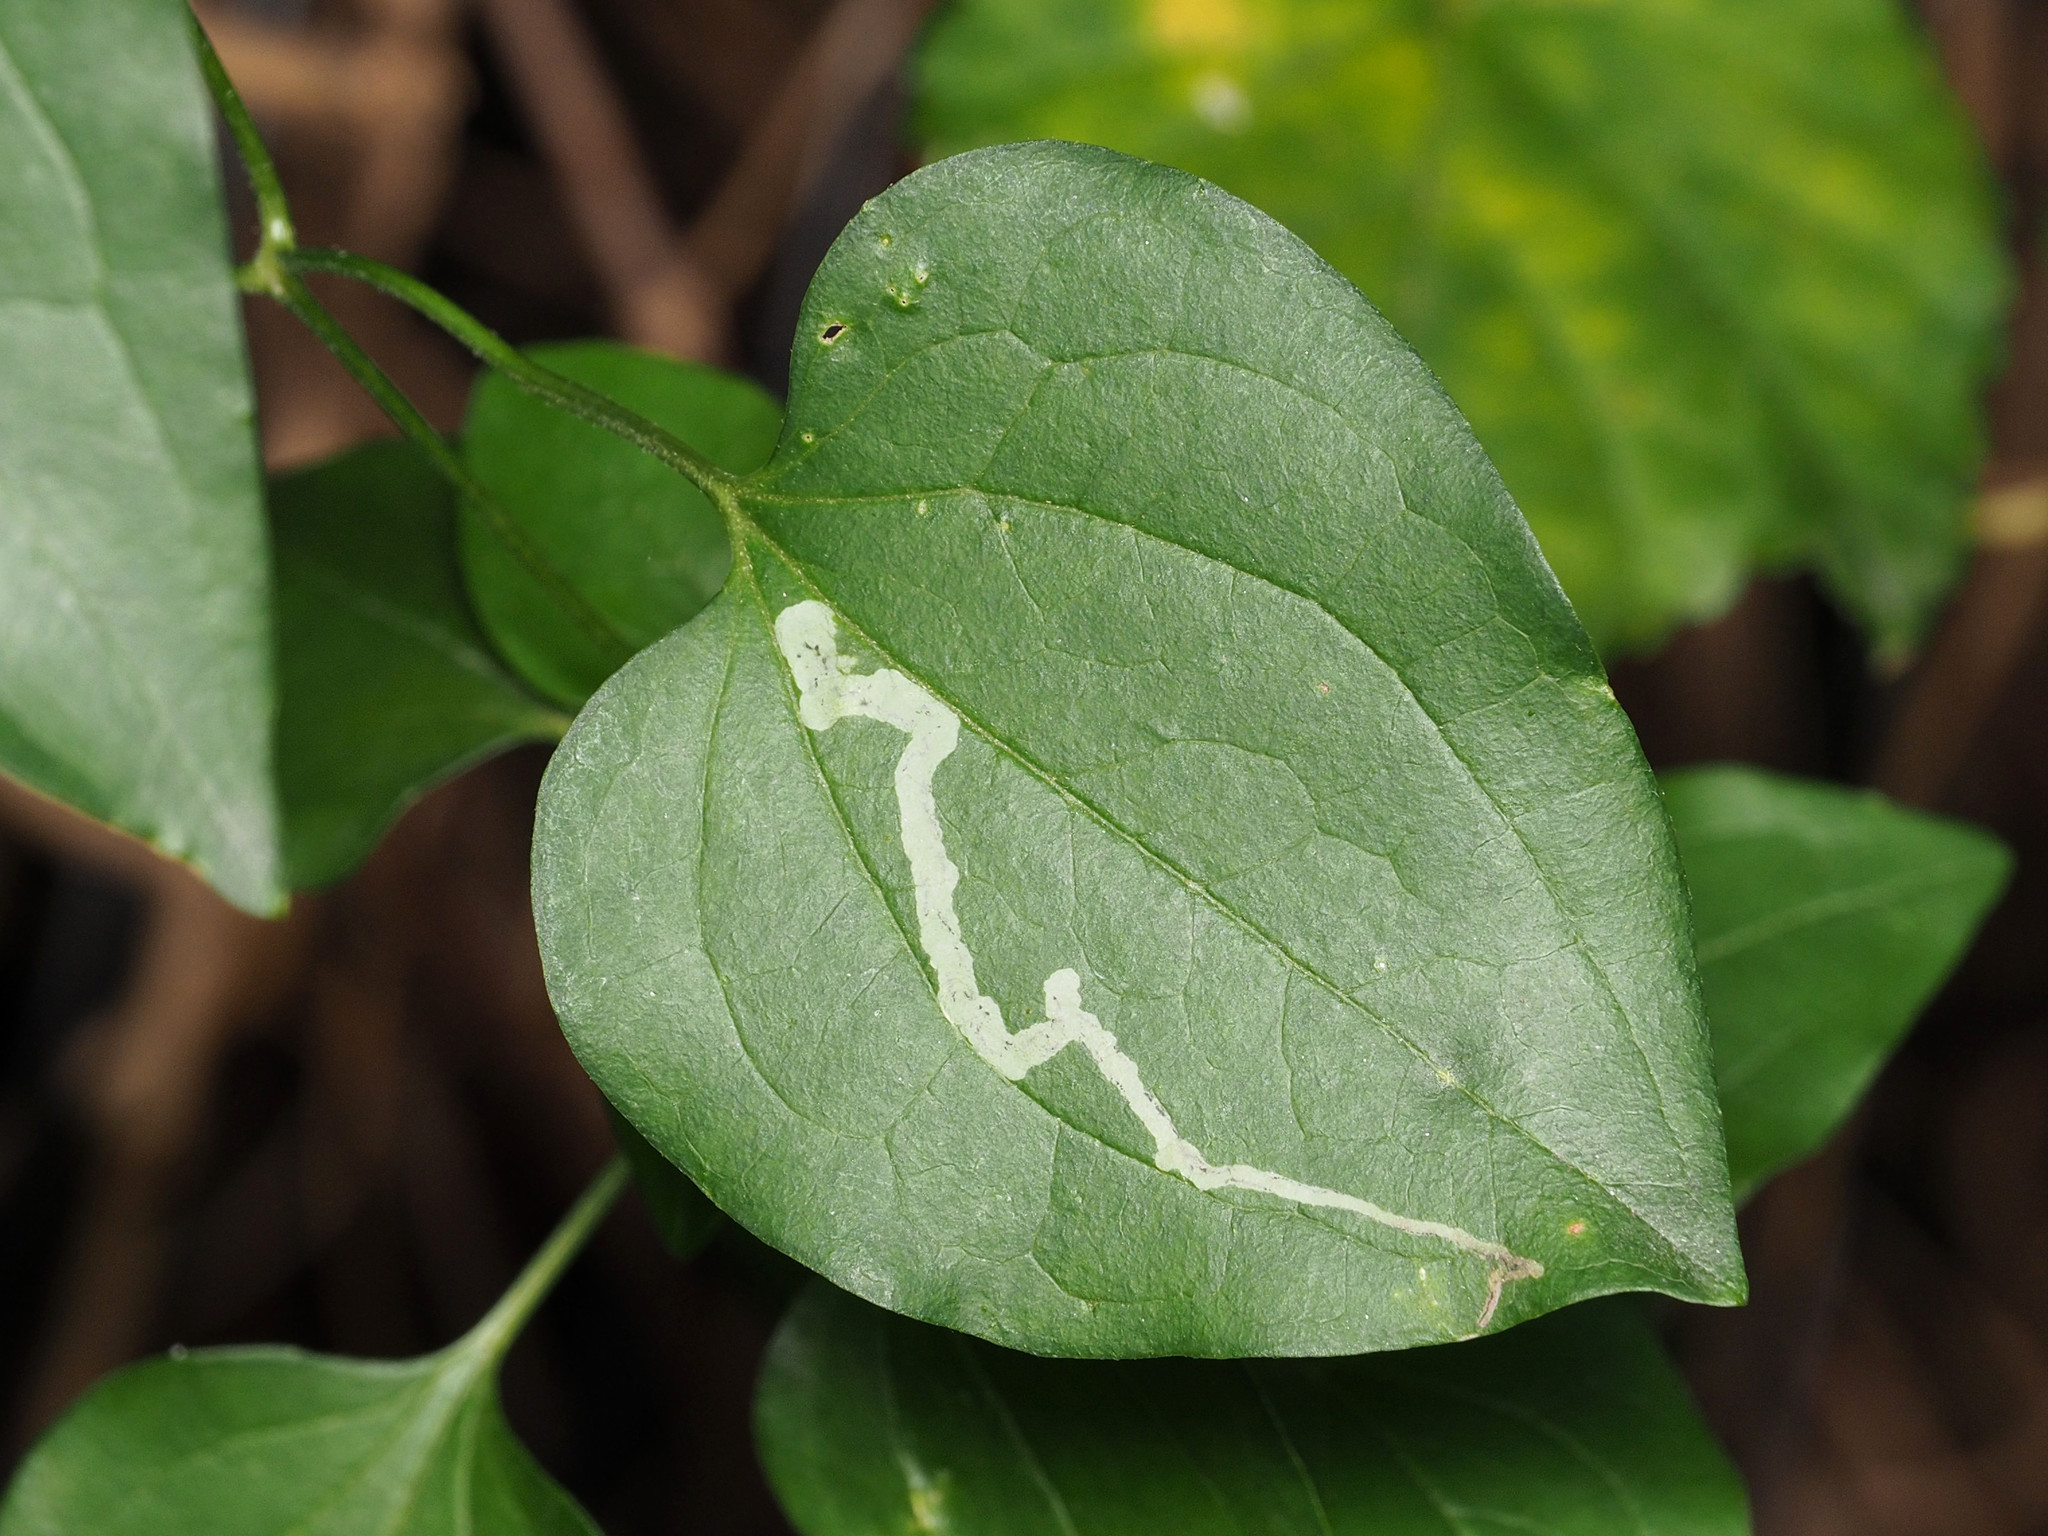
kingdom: Animalia
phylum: Arthropoda
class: Insecta
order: Diptera
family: Agromyzidae
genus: Phytomyza
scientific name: Phytomyza loewii
